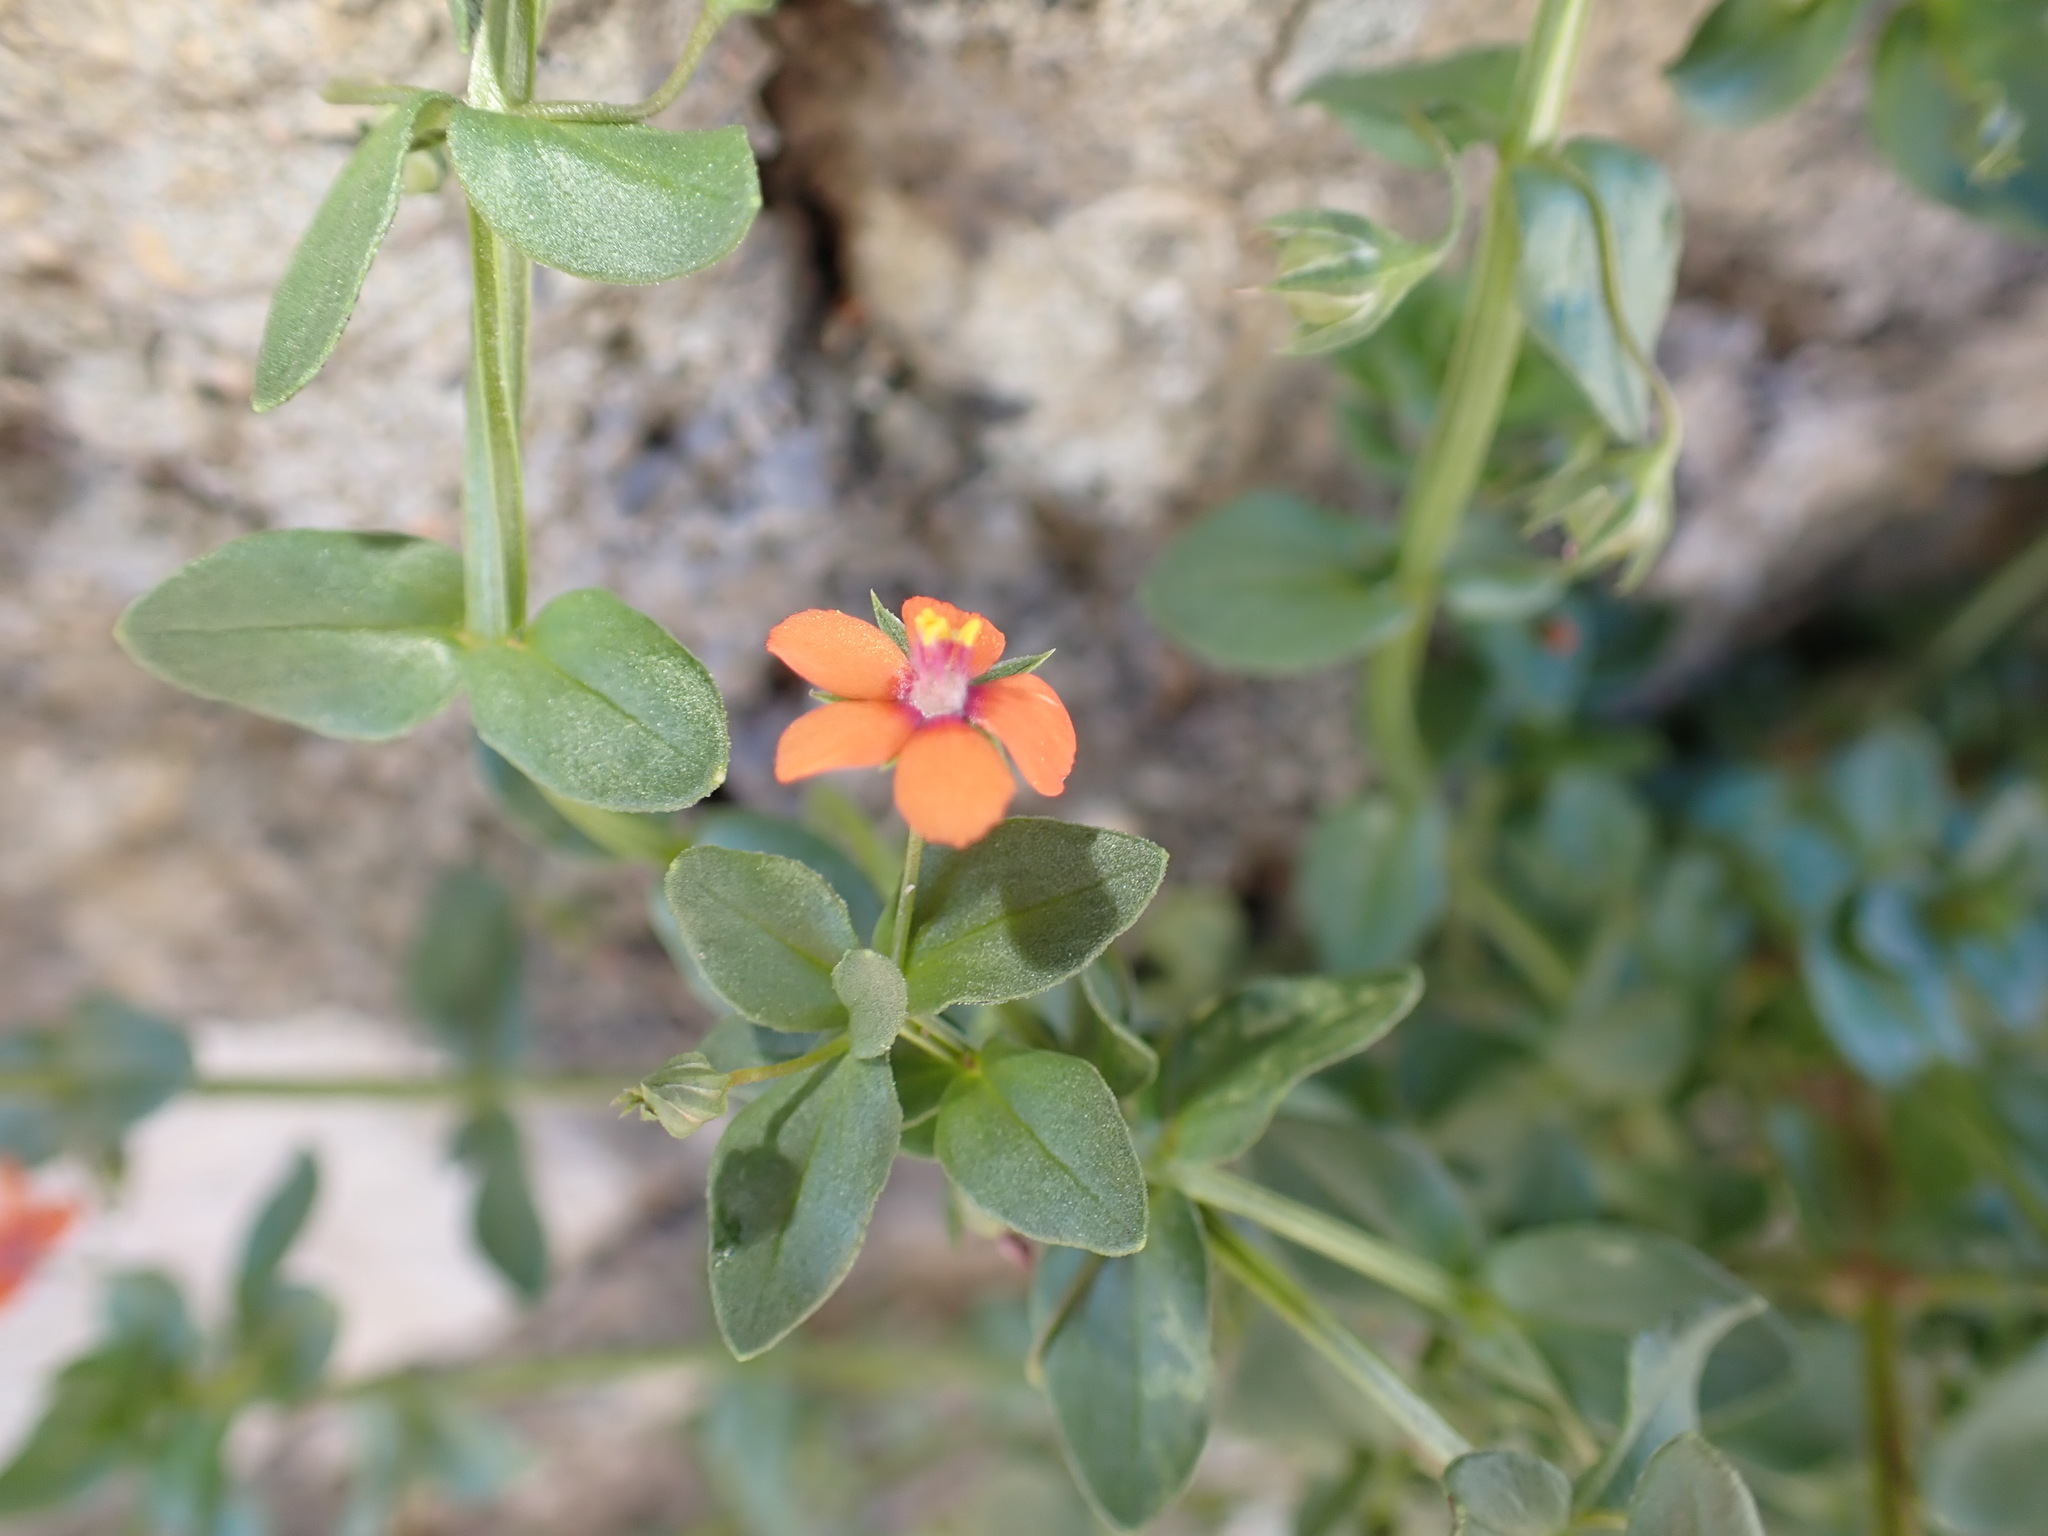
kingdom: Plantae
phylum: Tracheophyta
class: Magnoliopsida
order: Ericales
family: Primulaceae
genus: Lysimachia
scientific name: Lysimachia arvensis
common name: Scarlet pimpernel
